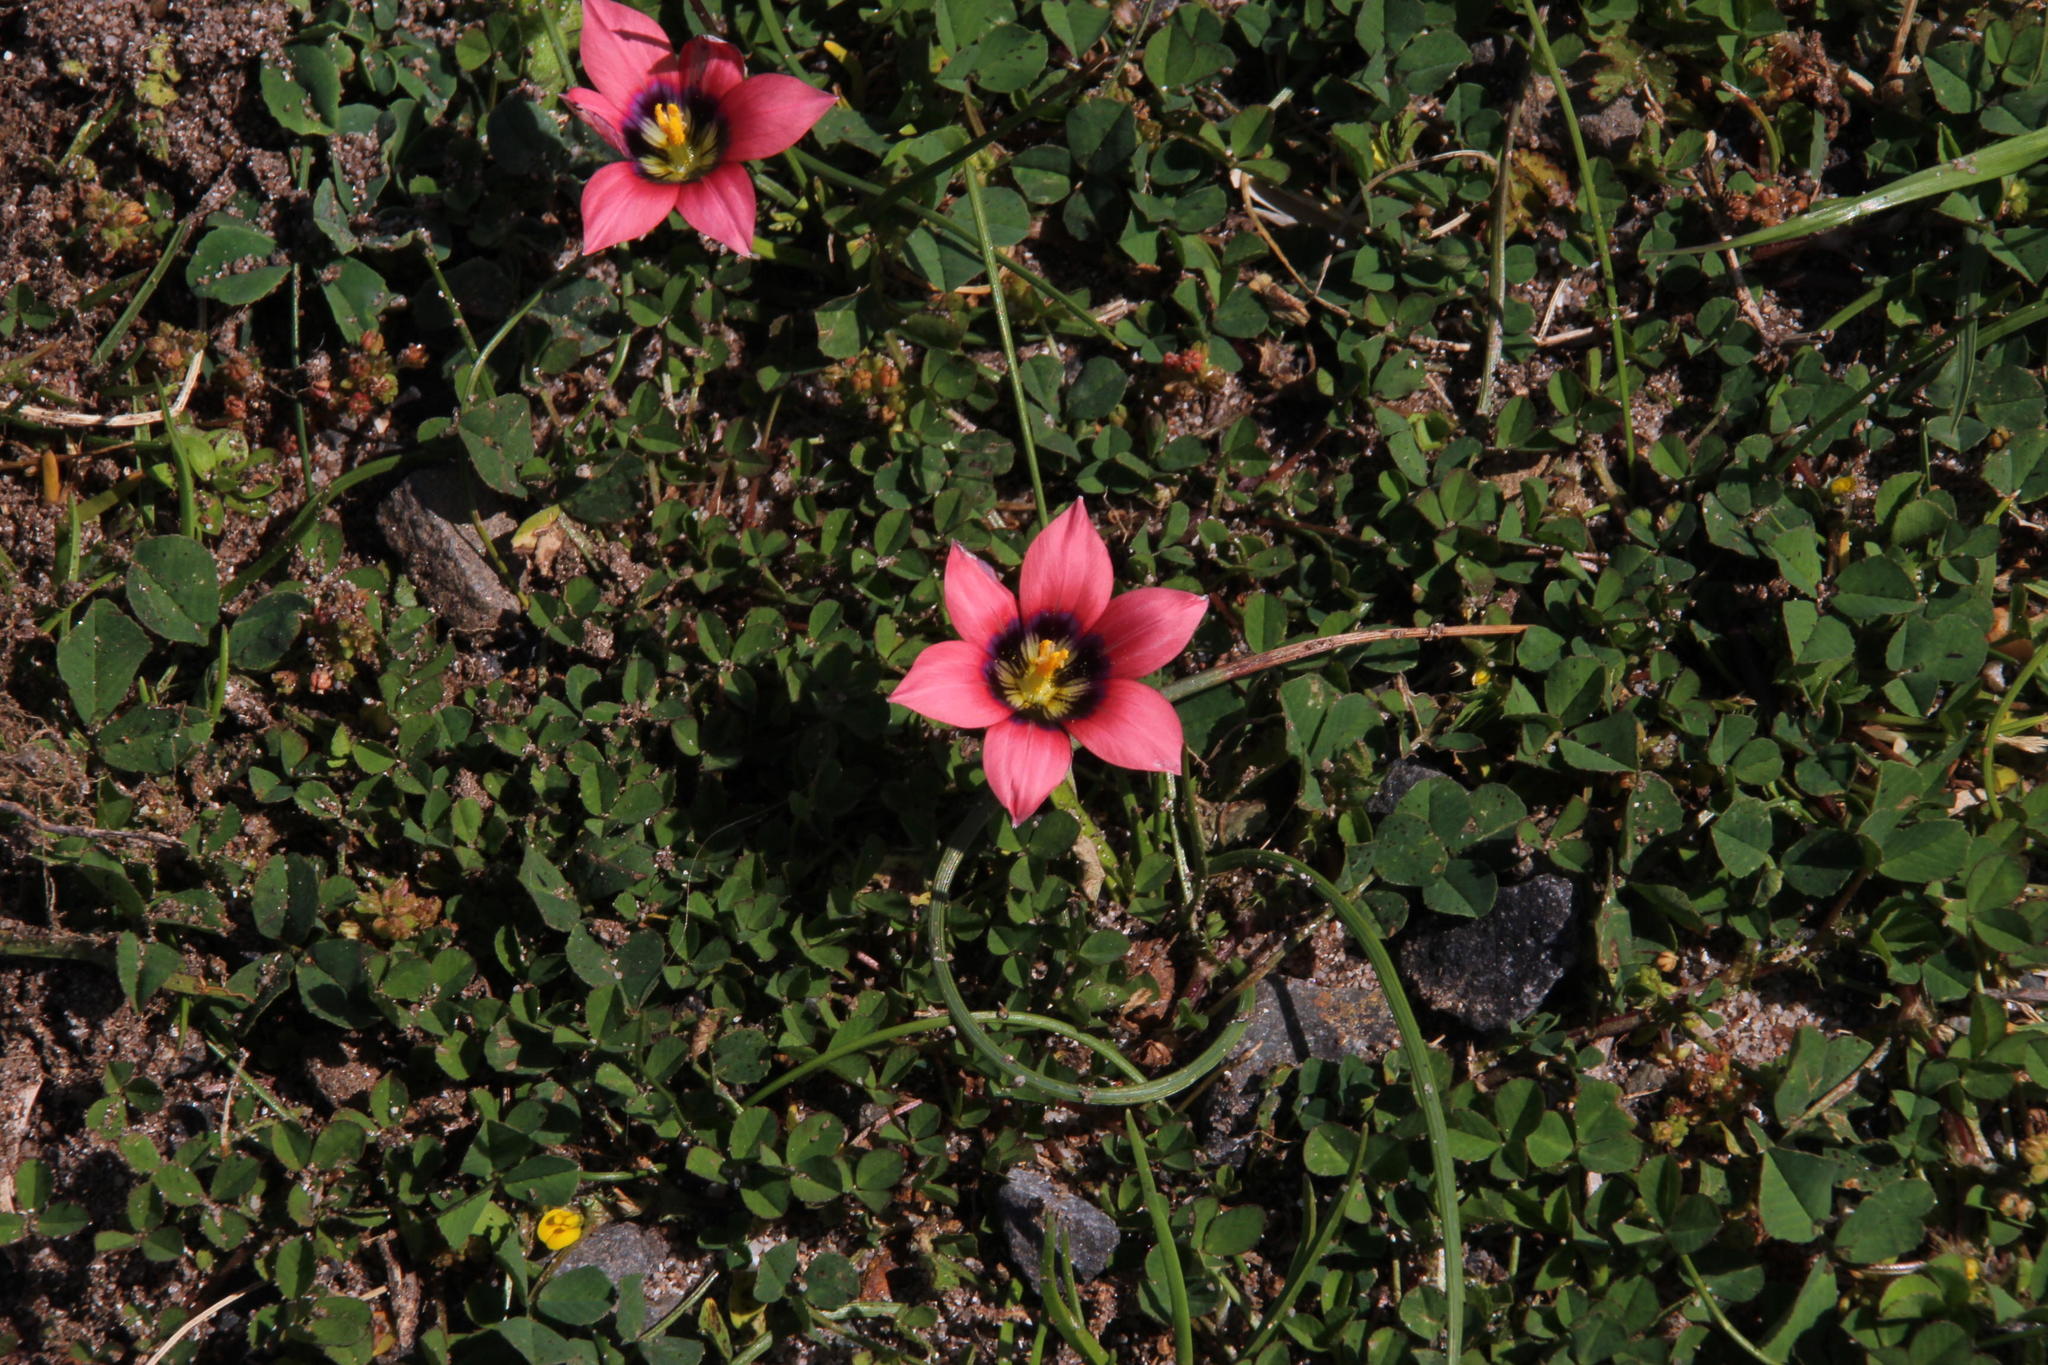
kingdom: Plantae
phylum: Tracheophyta
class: Liliopsida
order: Asparagales
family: Iridaceae
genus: Romulea
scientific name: Romulea hirsuta
